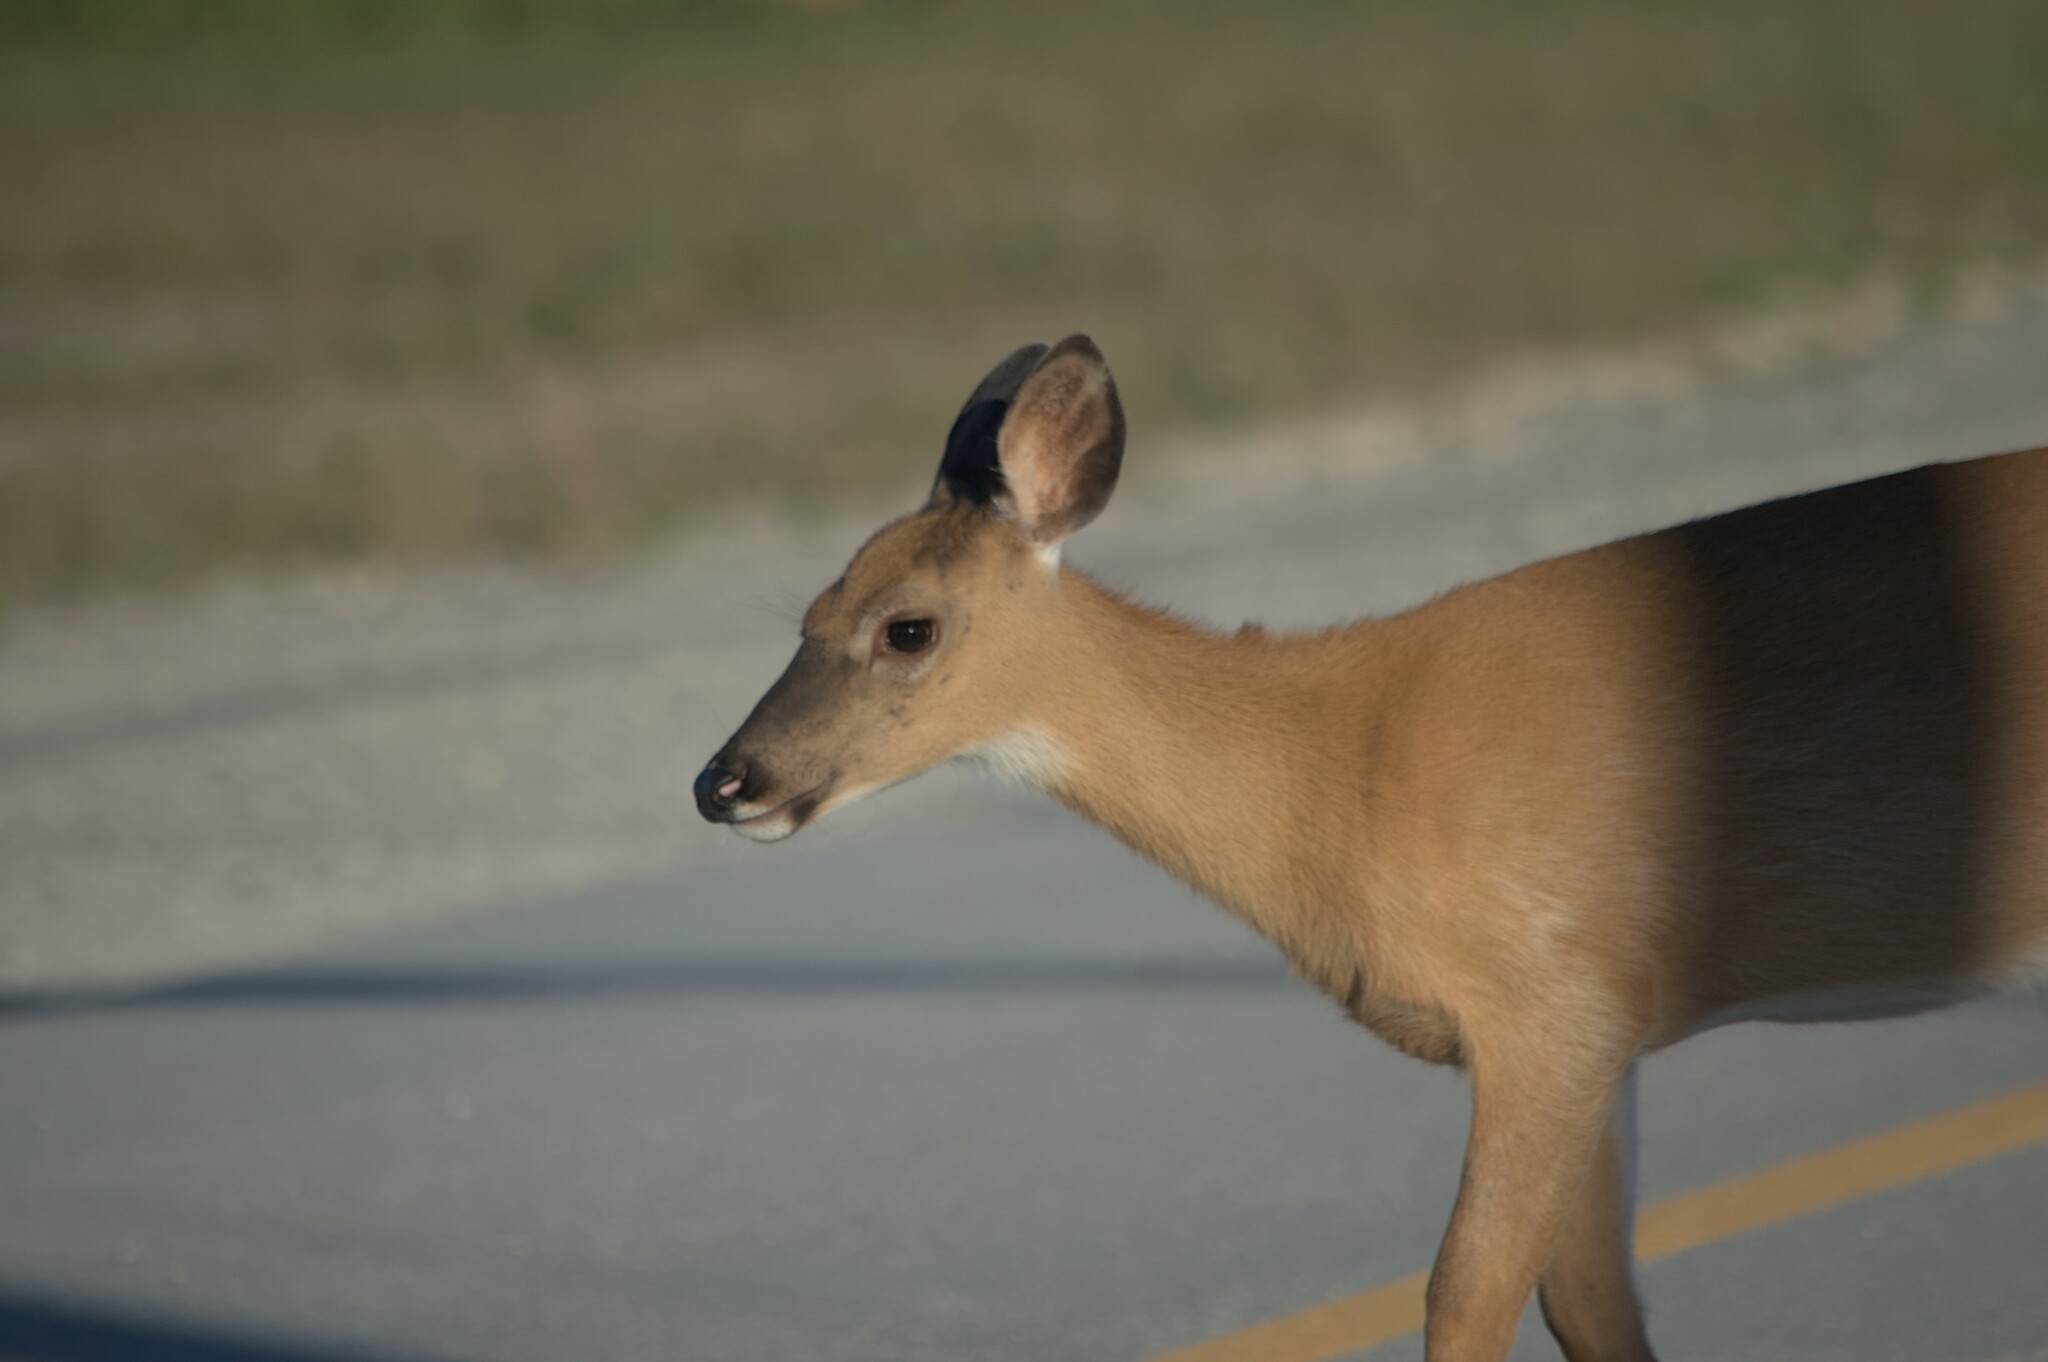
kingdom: Animalia
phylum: Chordata
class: Mammalia
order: Artiodactyla
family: Cervidae
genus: Odocoileus
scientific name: Odocoileus virginianus
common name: White-tailed deer
